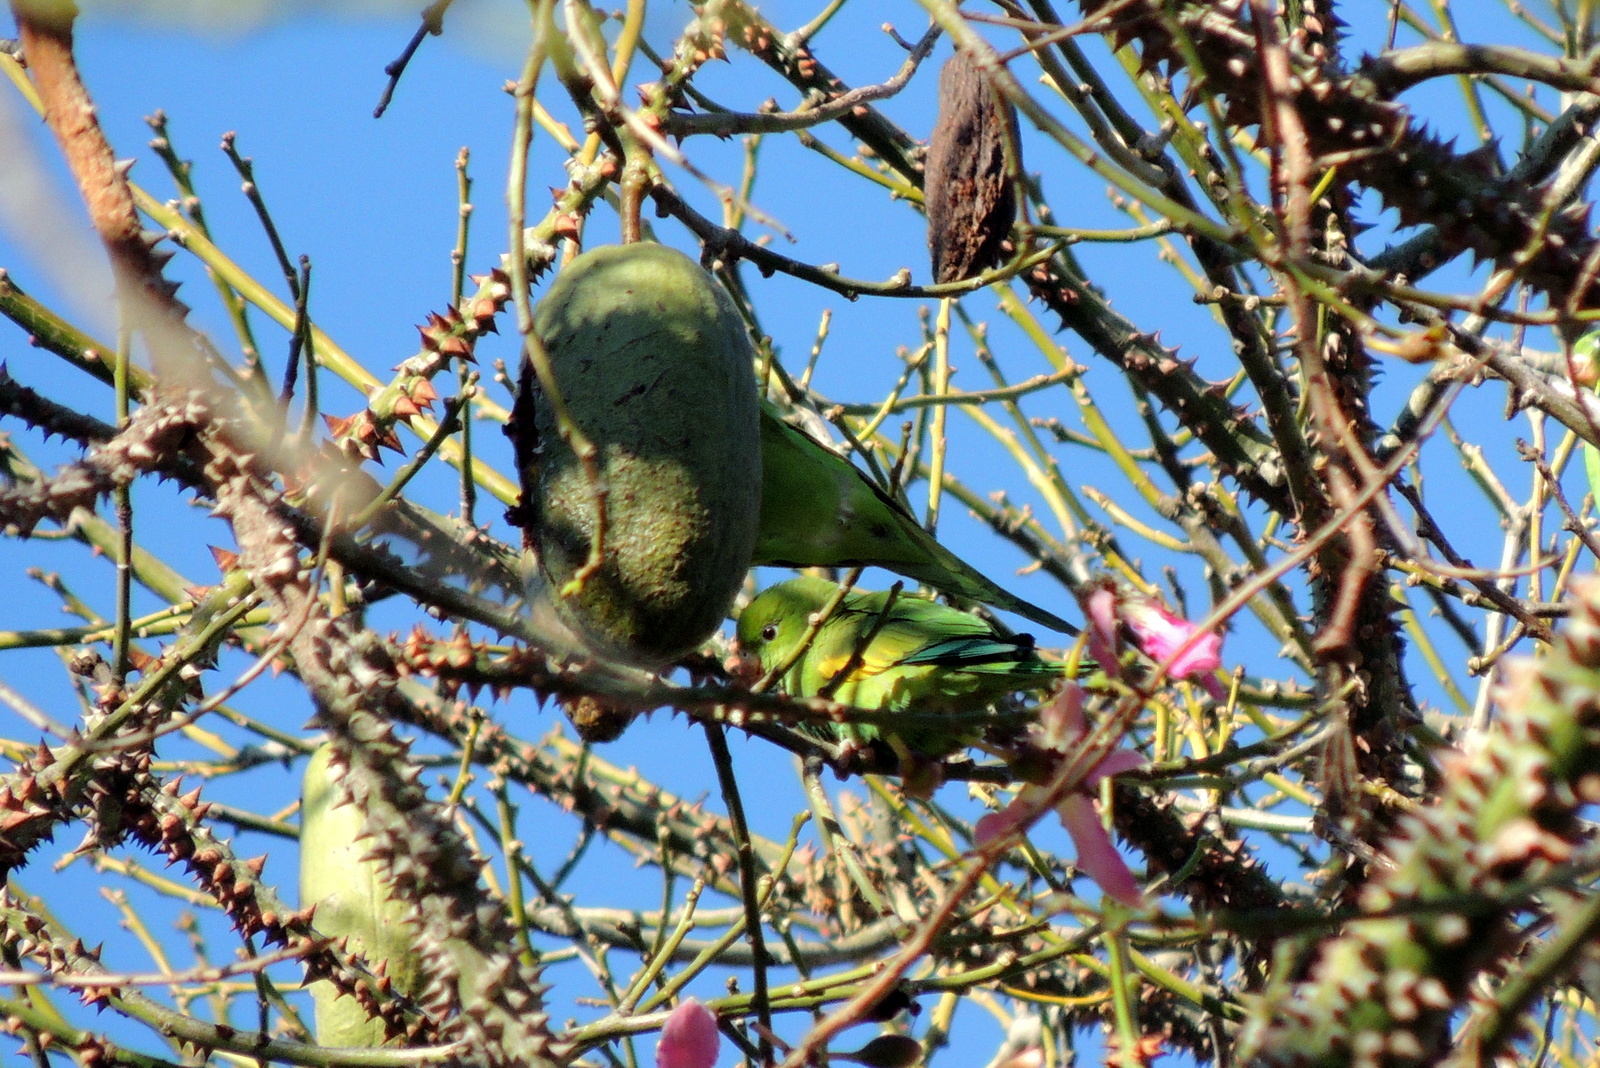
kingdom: Animalia
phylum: Chordata
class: Aves
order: Psittaciformes
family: Psittacidae
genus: Brotogeris
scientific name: Brotogeris chiriri
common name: Yellow-chevroned parakeet
